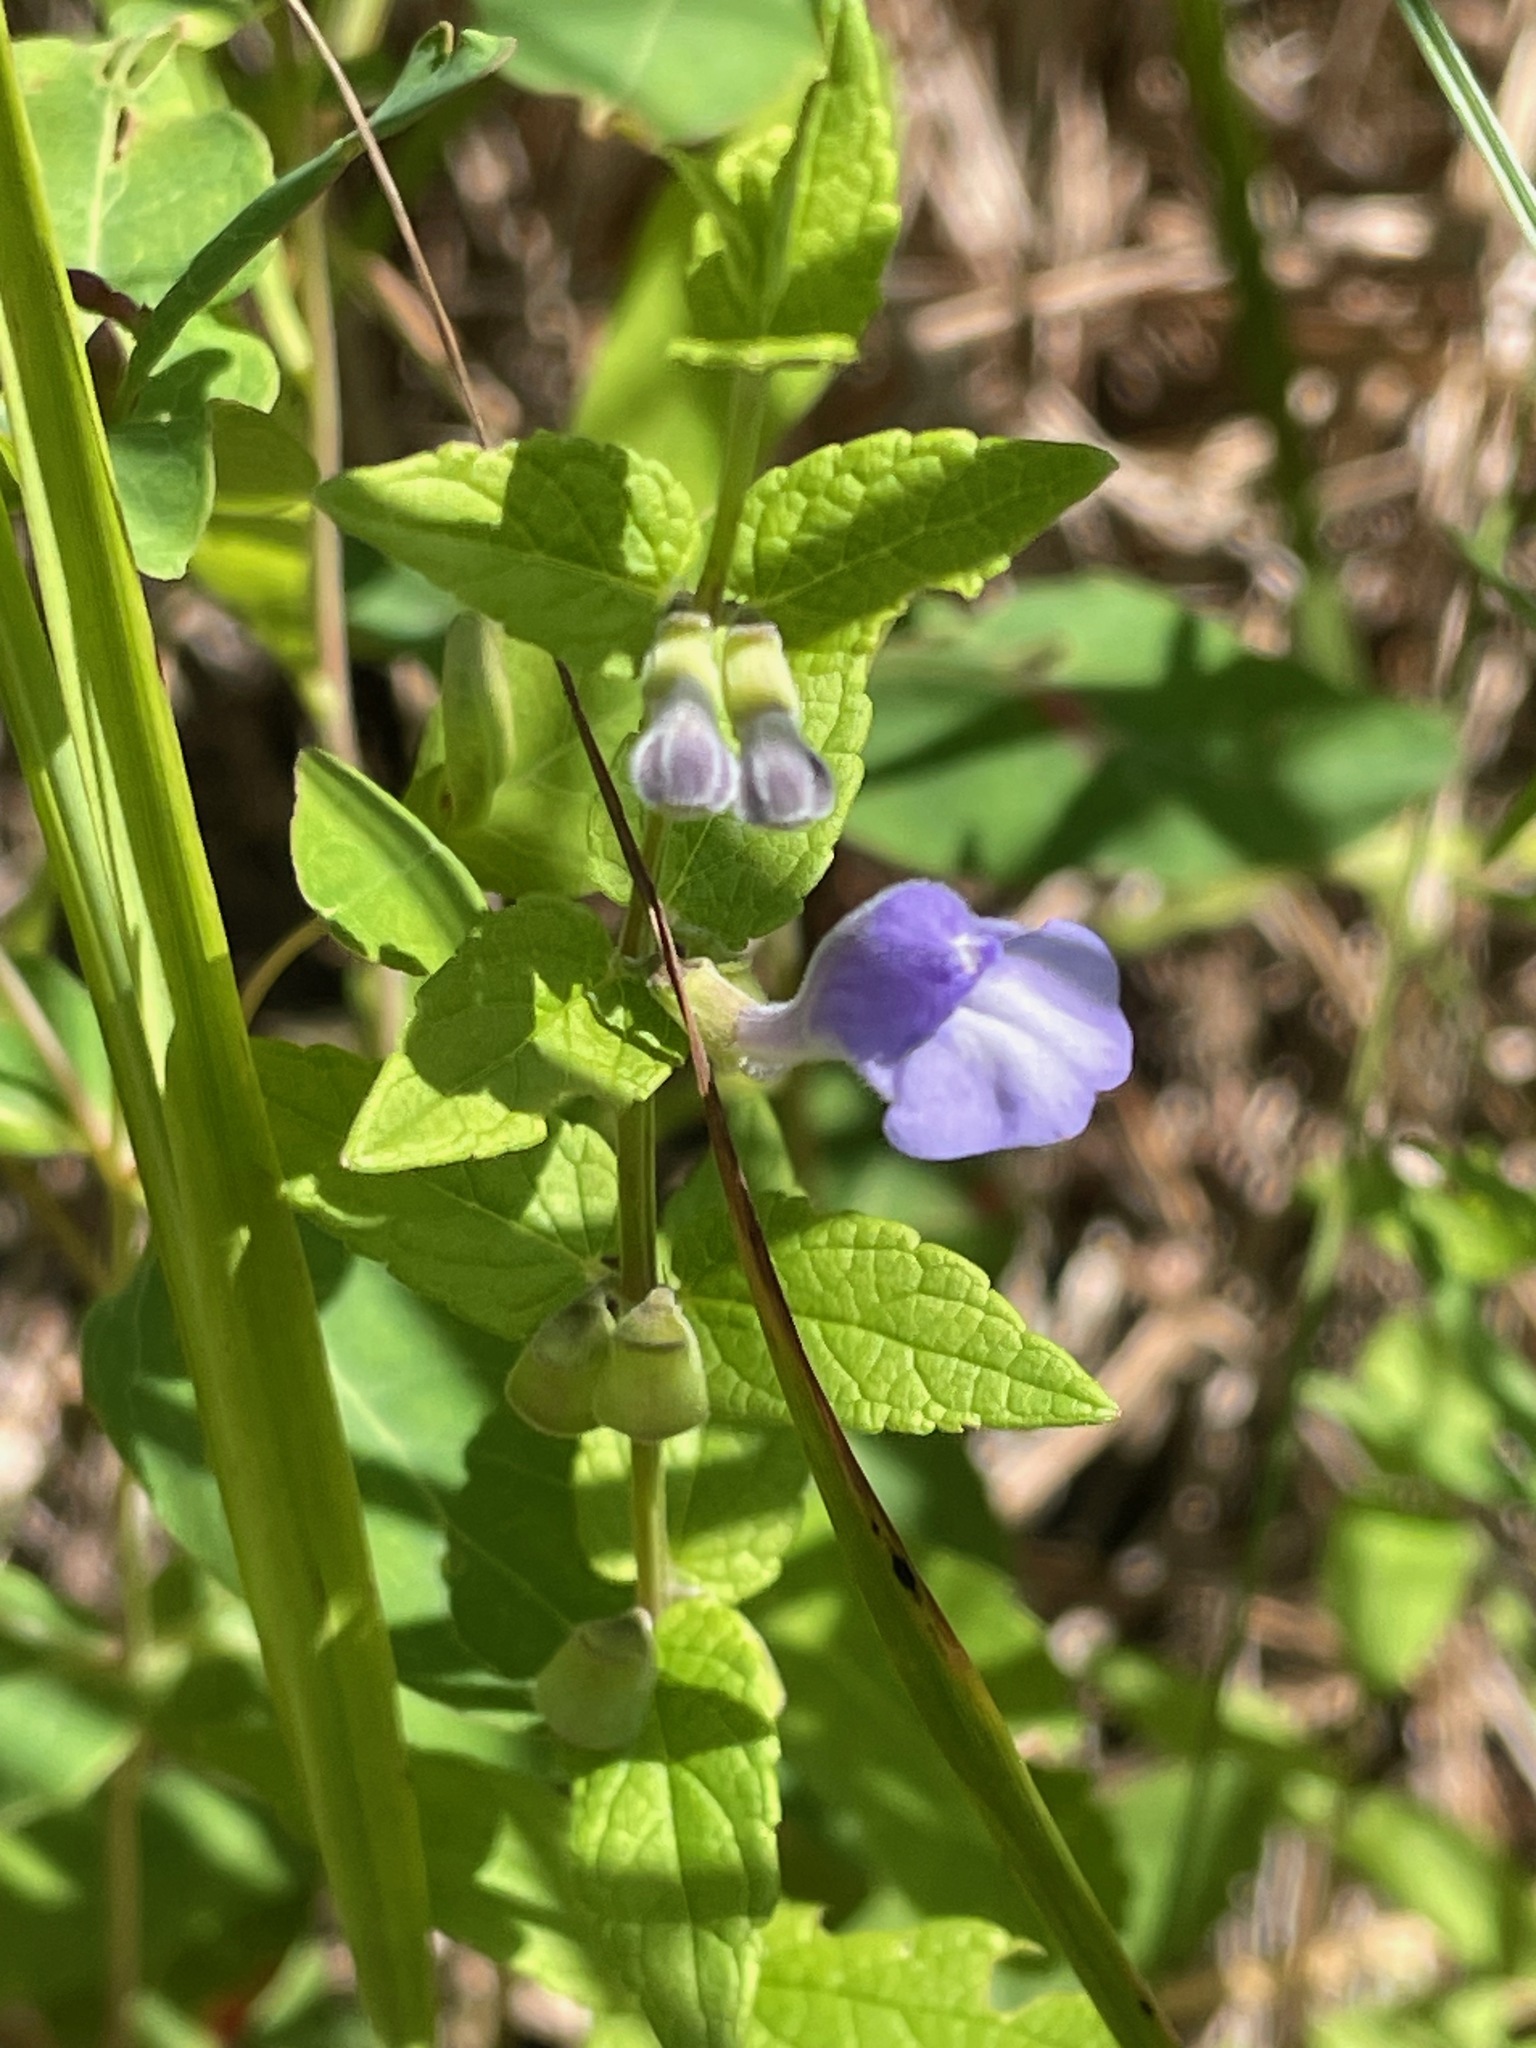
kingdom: Plantae
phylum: Tracheophyta
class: Magnoliopsida
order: Lamiales
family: Lamiaceae
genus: Scutellaria
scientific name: Scutellaria galericulata
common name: Skullcap
